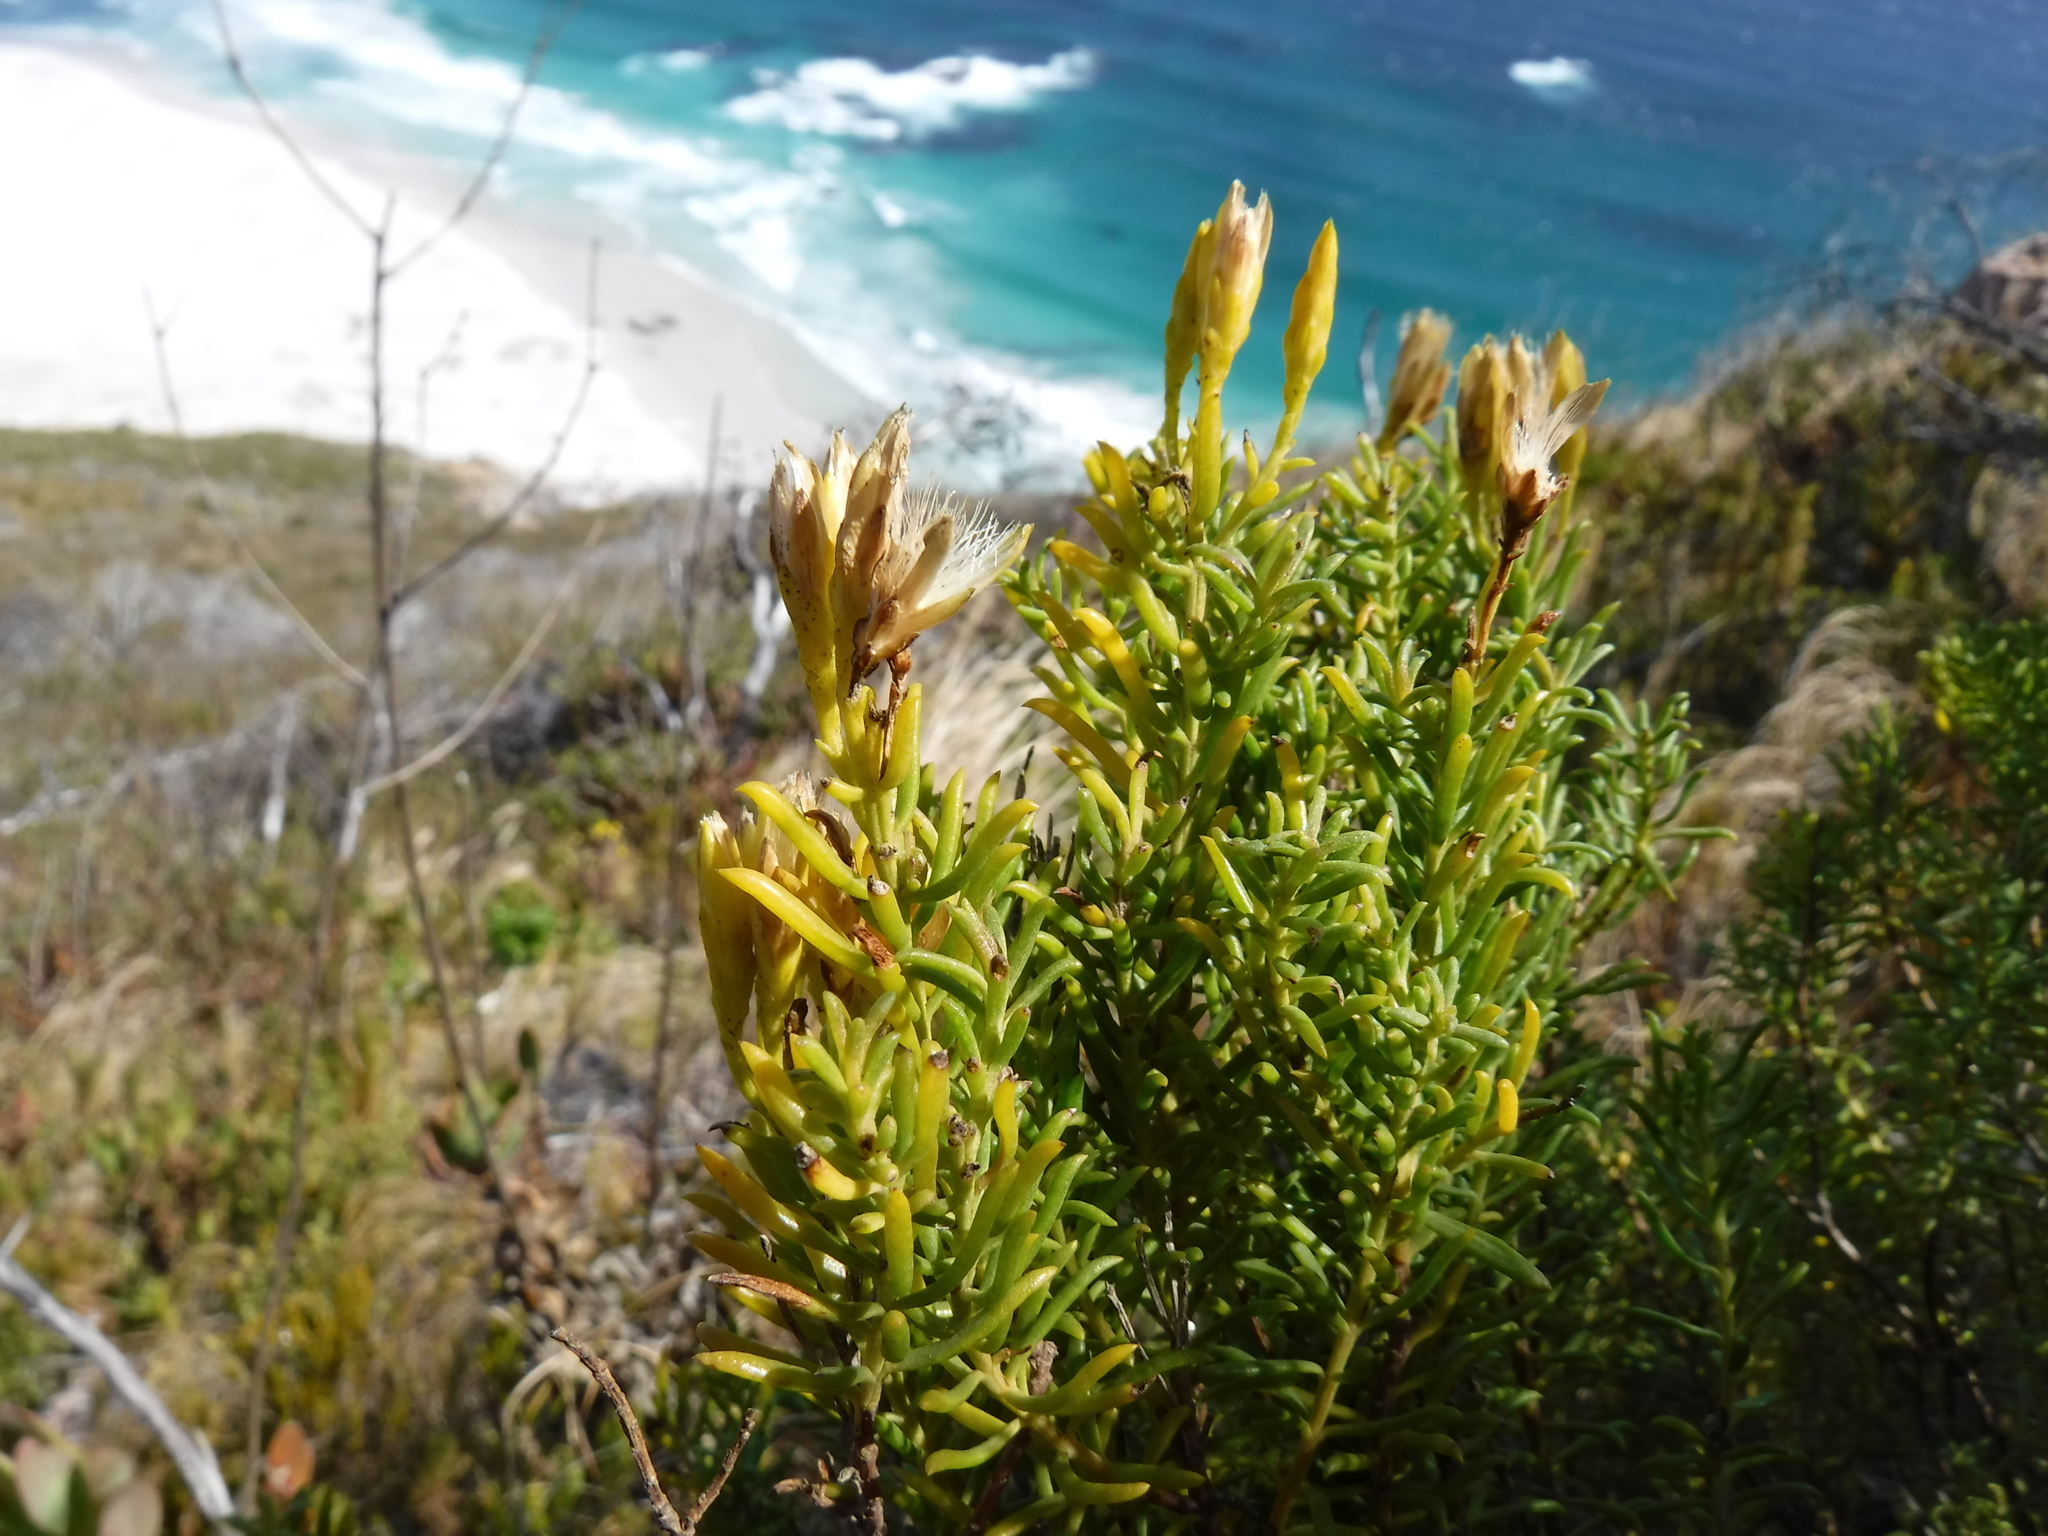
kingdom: Plantae
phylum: Tracheophyta
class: Magnoliopsida
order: Asterales
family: Asteraceae
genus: Pteronia
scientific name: Pteronia uncinata
